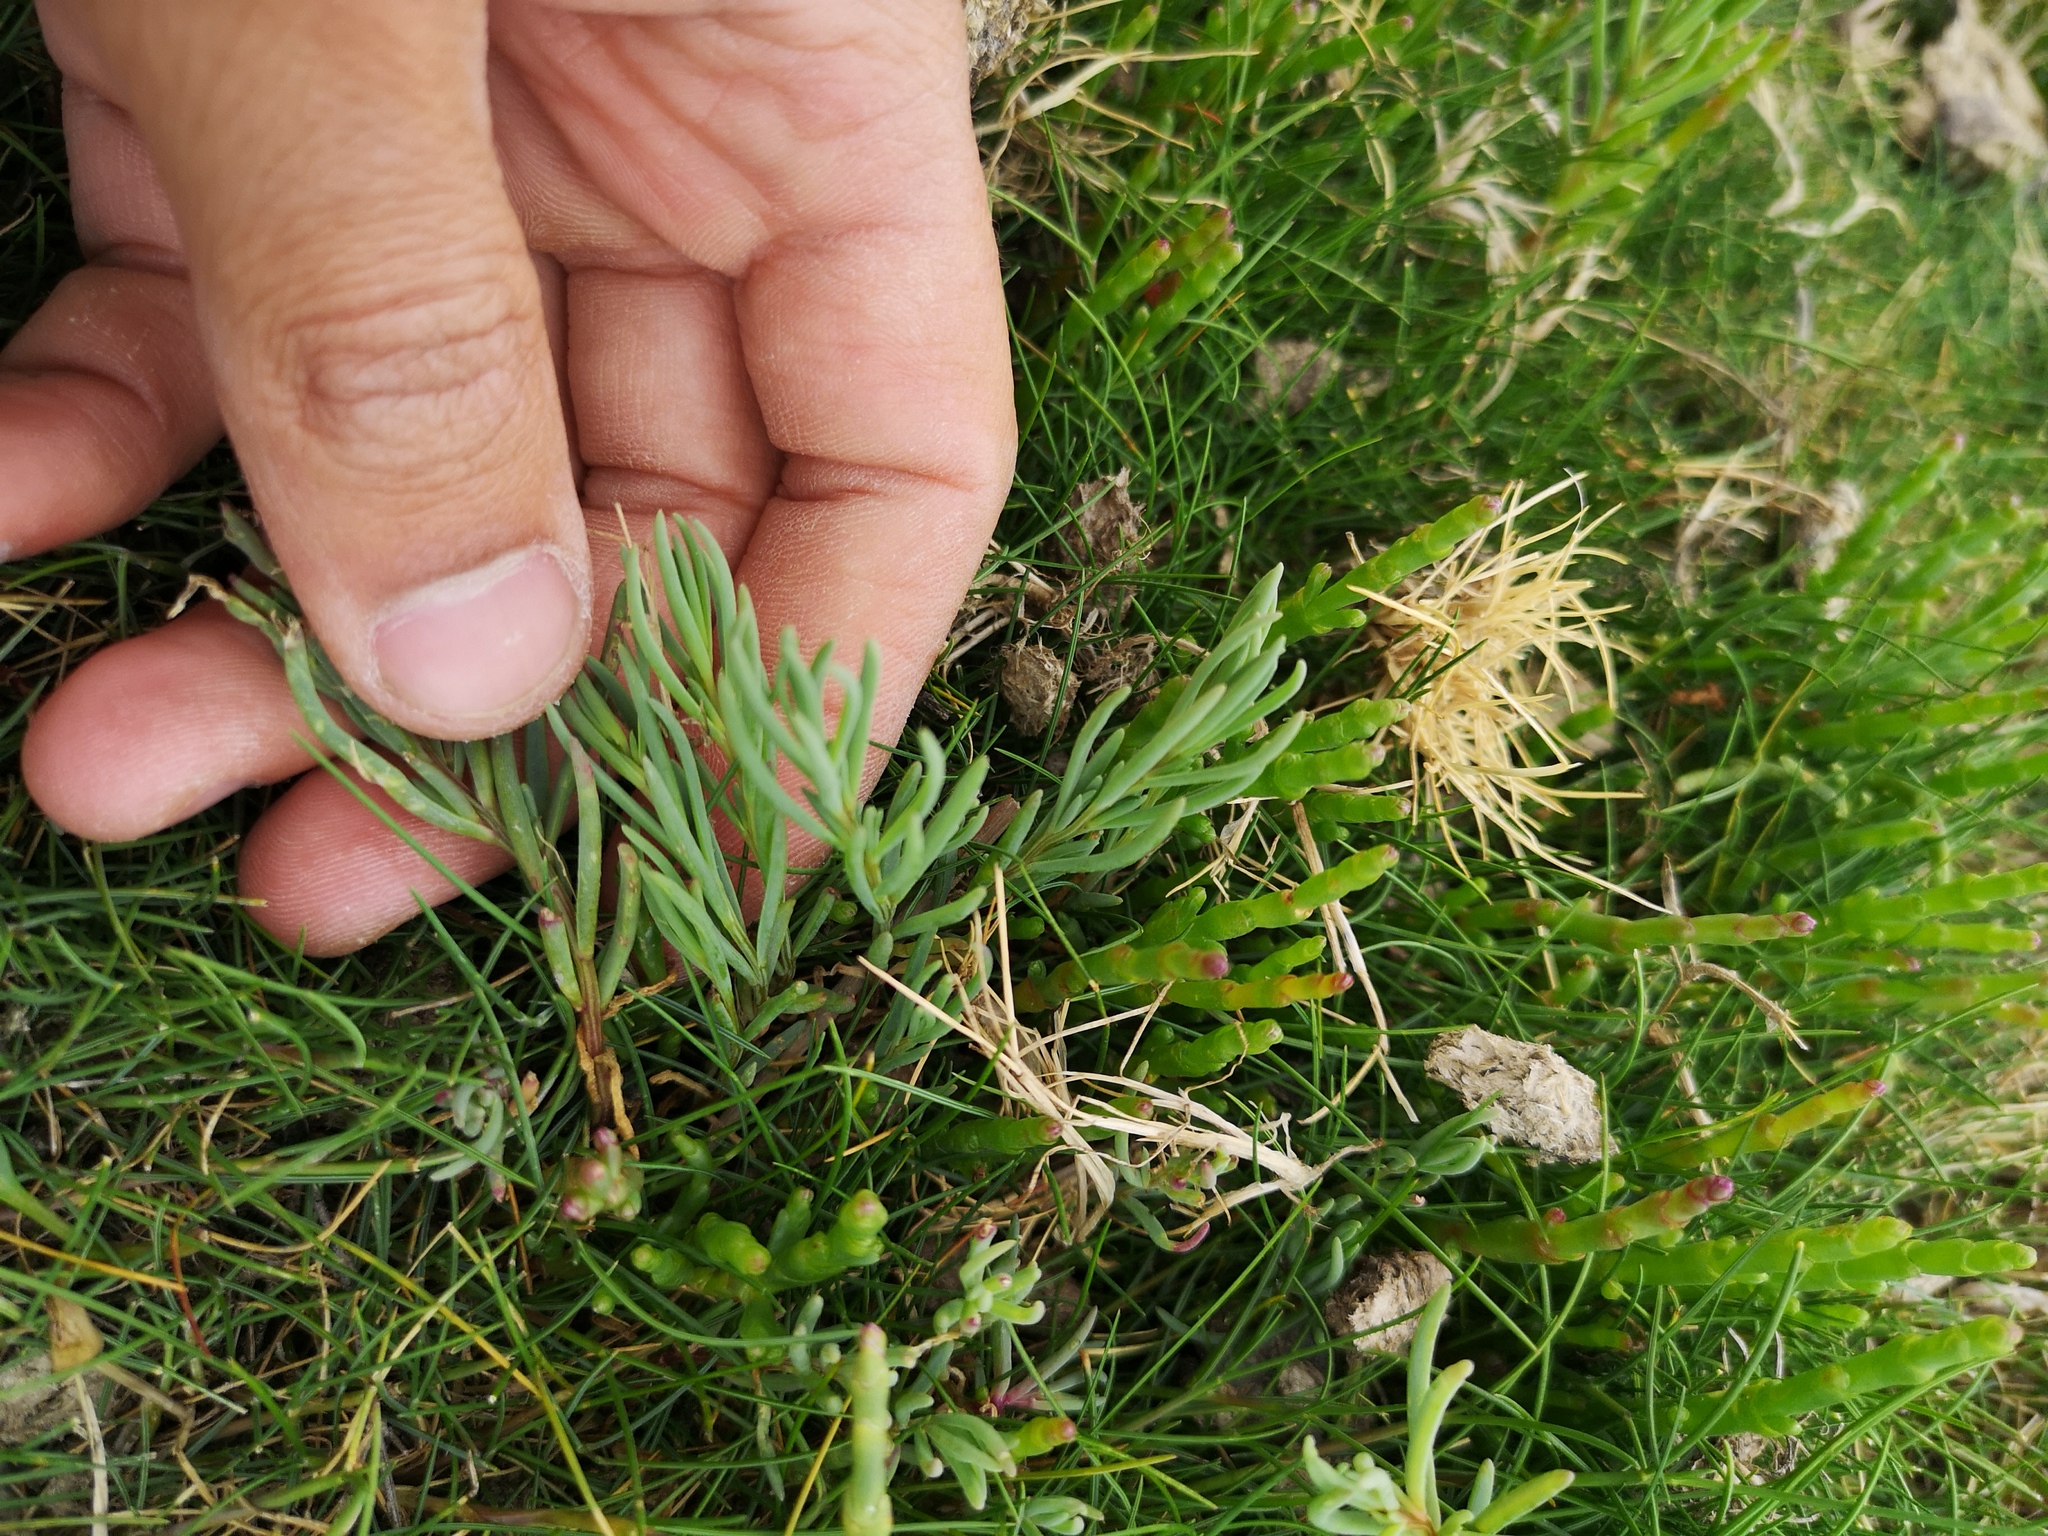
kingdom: Plantae
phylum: Tracheophyta
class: Magnoliopsida
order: Caryophyllales
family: Amaranthaceae
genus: Suaeda
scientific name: Suaeda maritima
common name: Annual sea-blite
